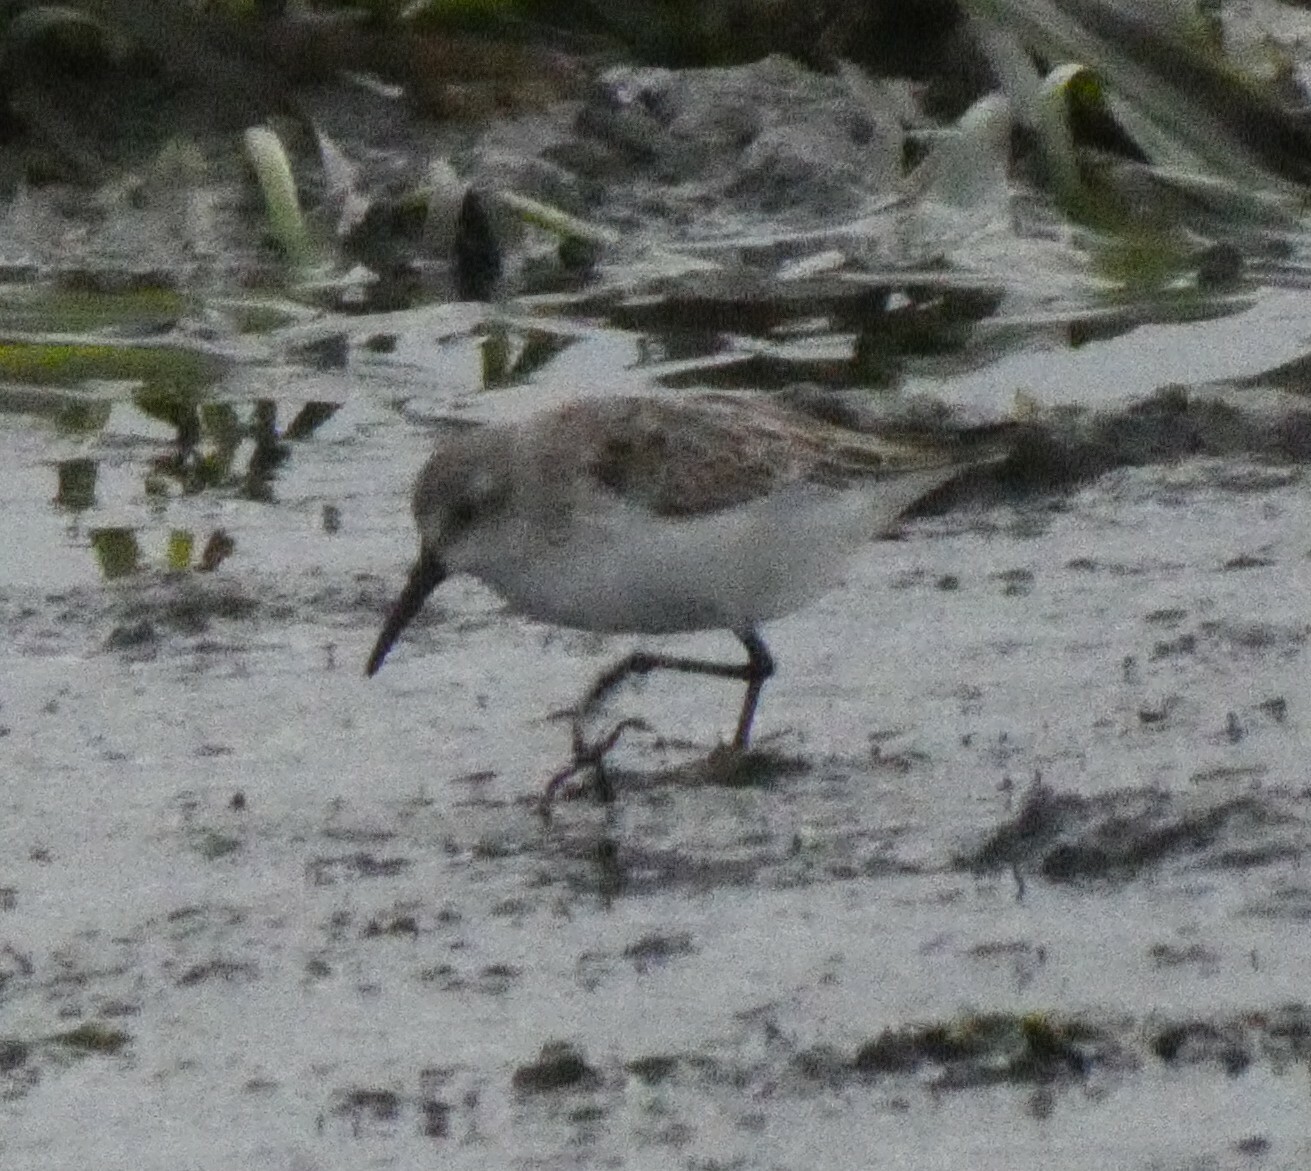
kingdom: Animalia
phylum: Chordata
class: Aves
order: Charadriiformes
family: Scolopacidae
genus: Calidris
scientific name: Calidris mauri
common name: Western sandpiper
